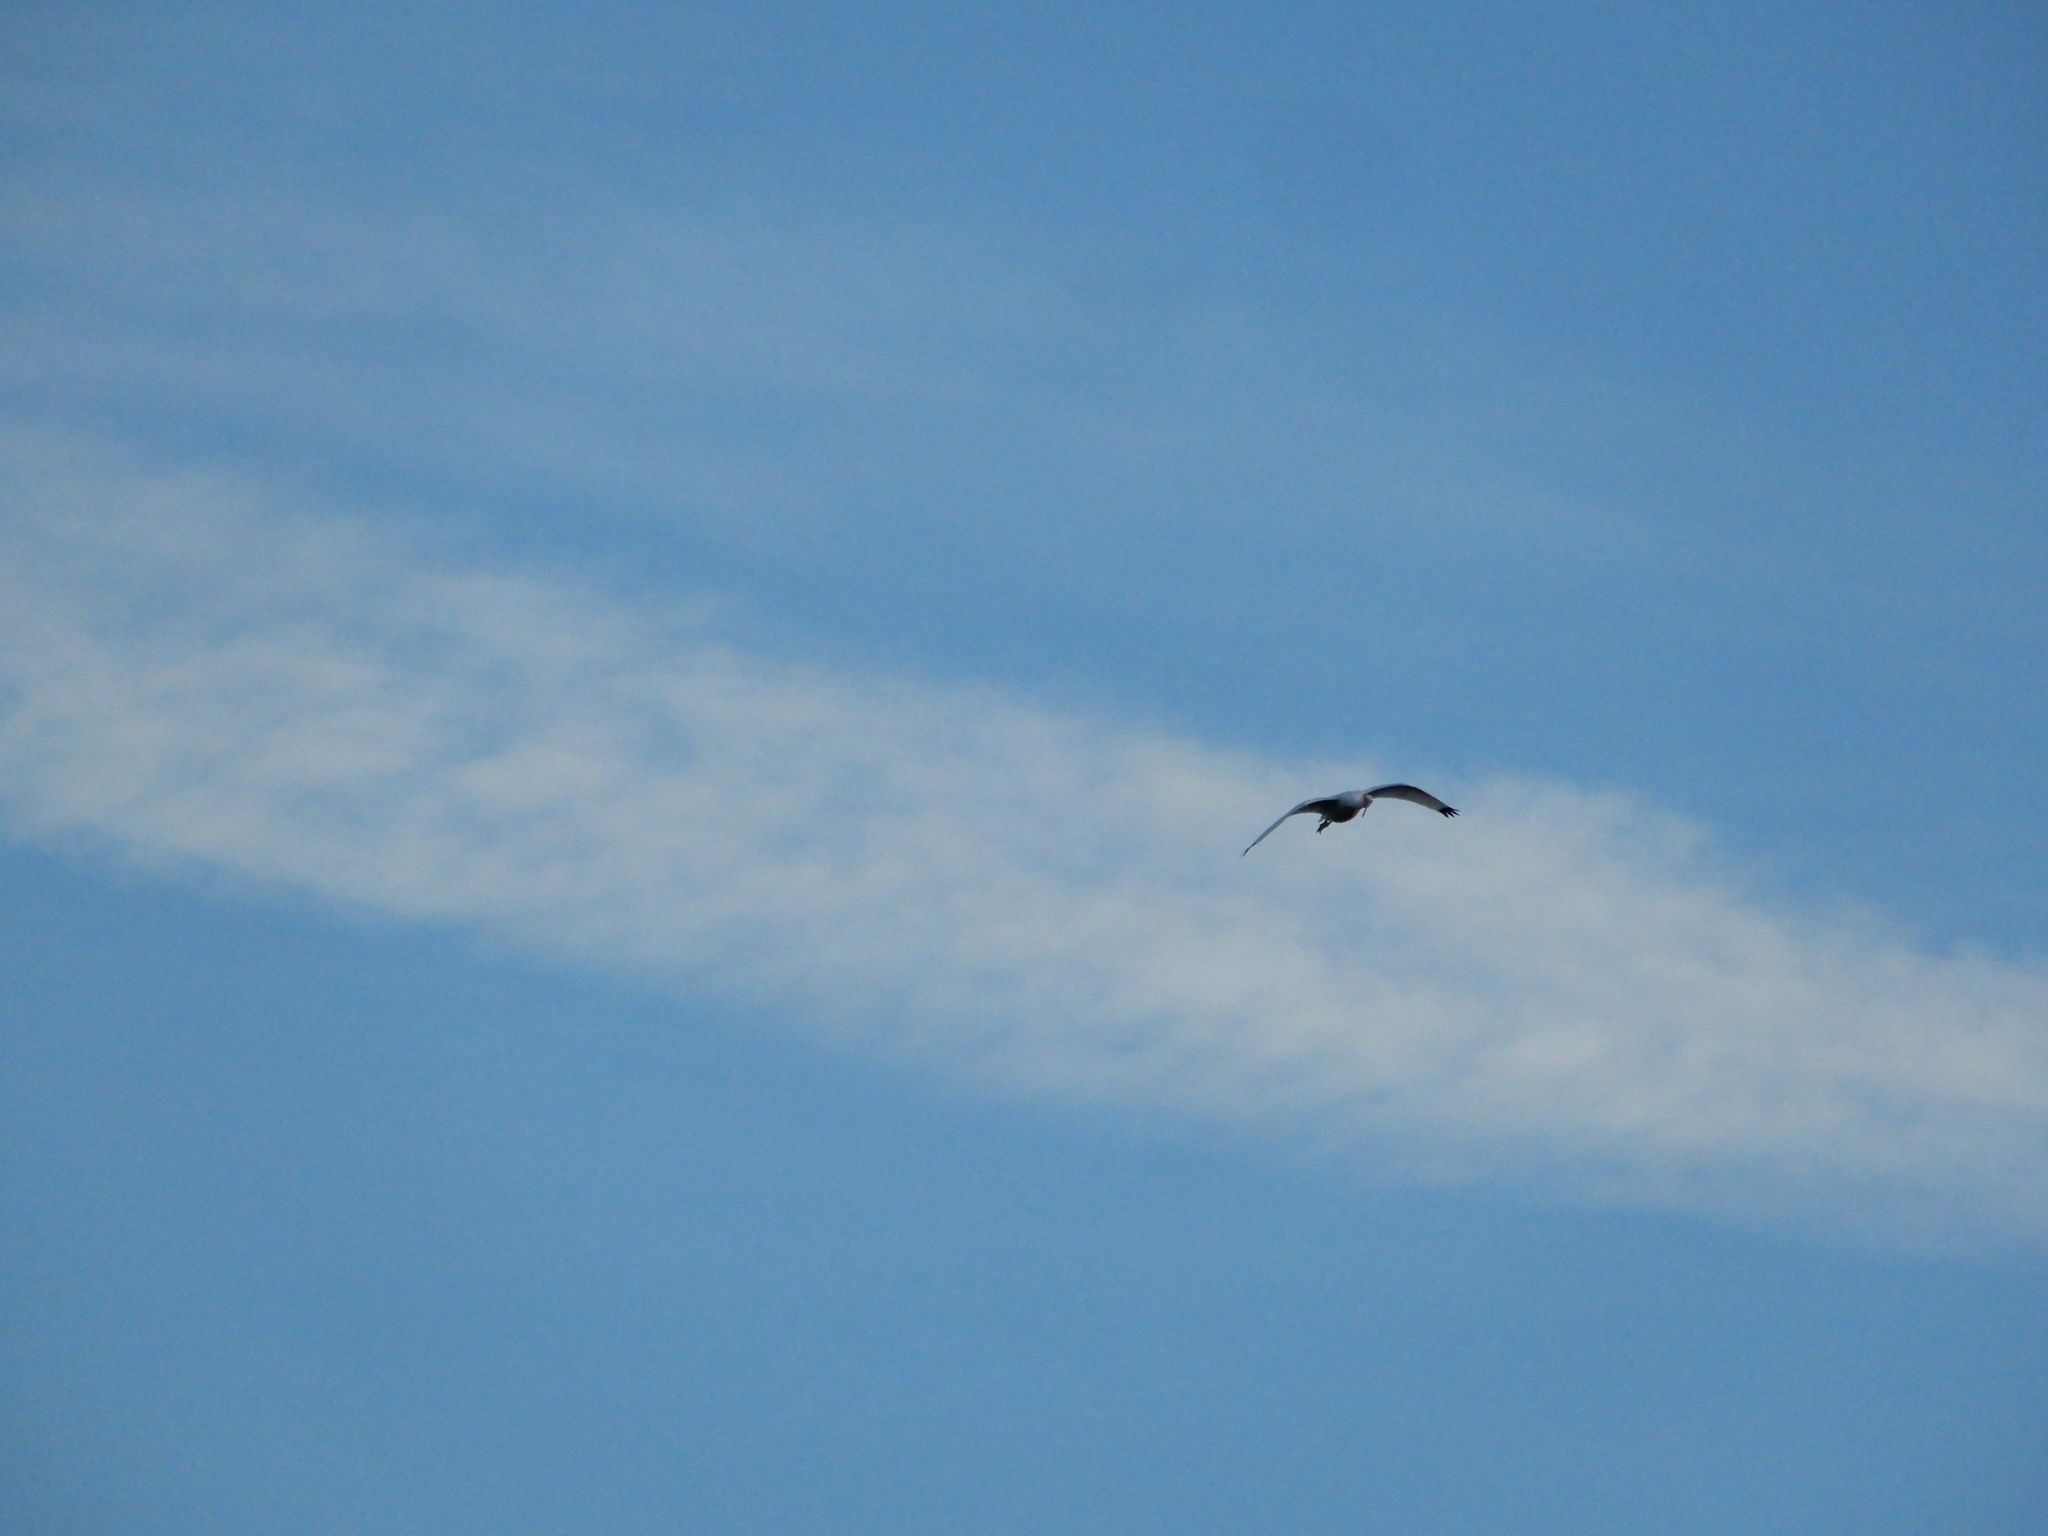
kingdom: Animalia
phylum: Chordata
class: Aves
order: Pelecaniformes
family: Threskiornithidae
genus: Eudocimus
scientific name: Eudocimus albus
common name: White ibis
